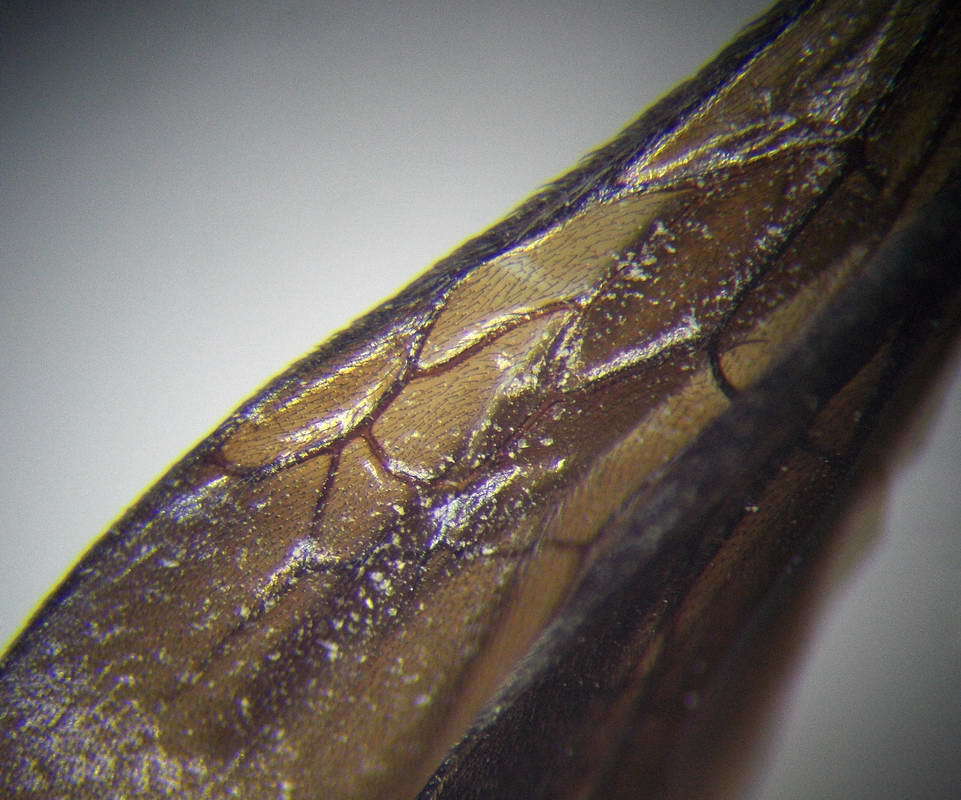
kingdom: Animalia
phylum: Arthropoda
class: Insecta
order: Hymenoptera
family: Mutillidae
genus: Dasylabris
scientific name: Dasylabris maura
